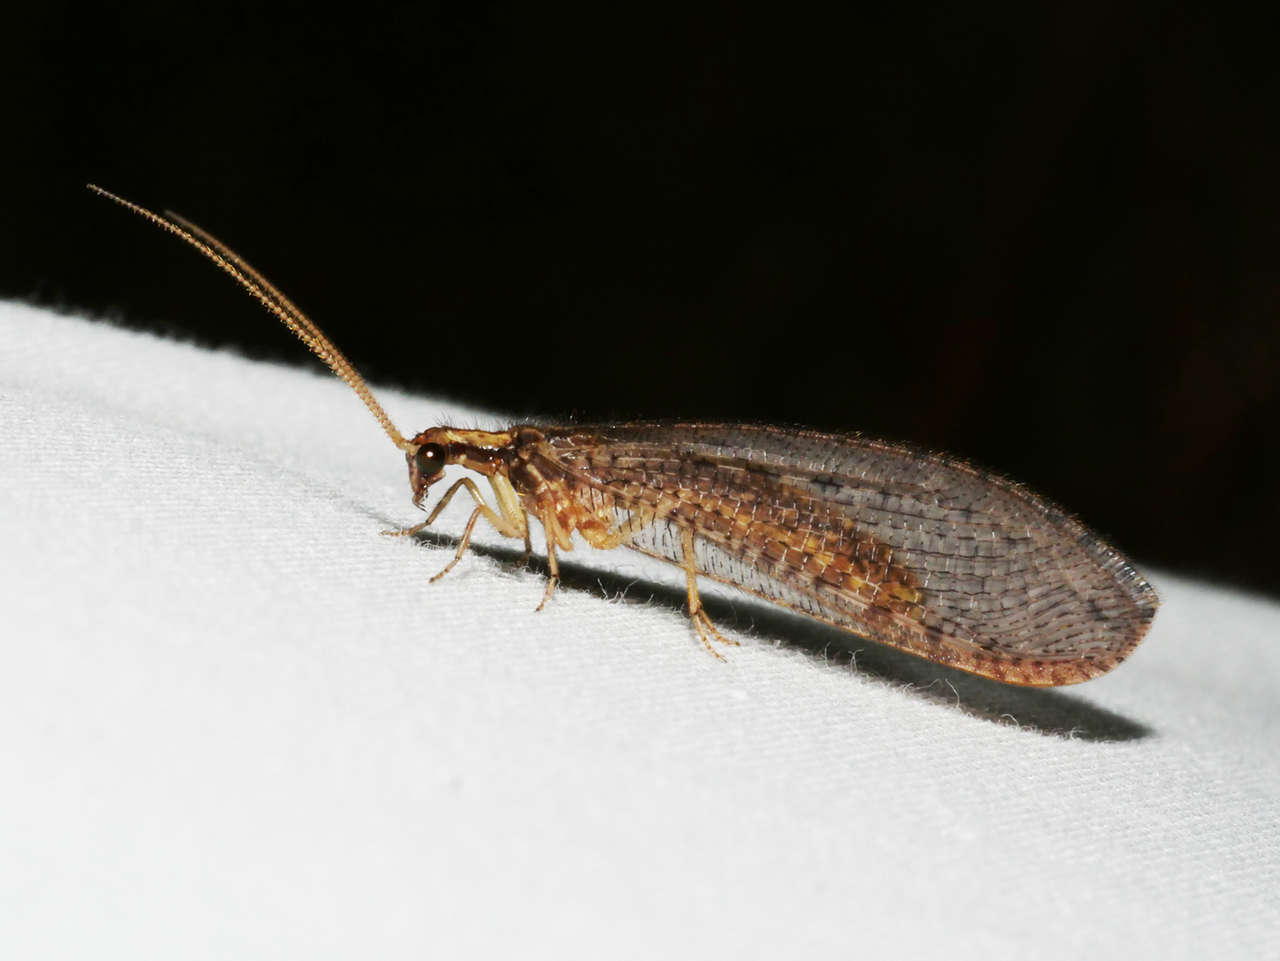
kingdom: Animalia
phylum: Arthropoda
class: Insecta
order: Neuroptera
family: Osmylidae
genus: Stenosmylus
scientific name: Stenosmylus tenuis
